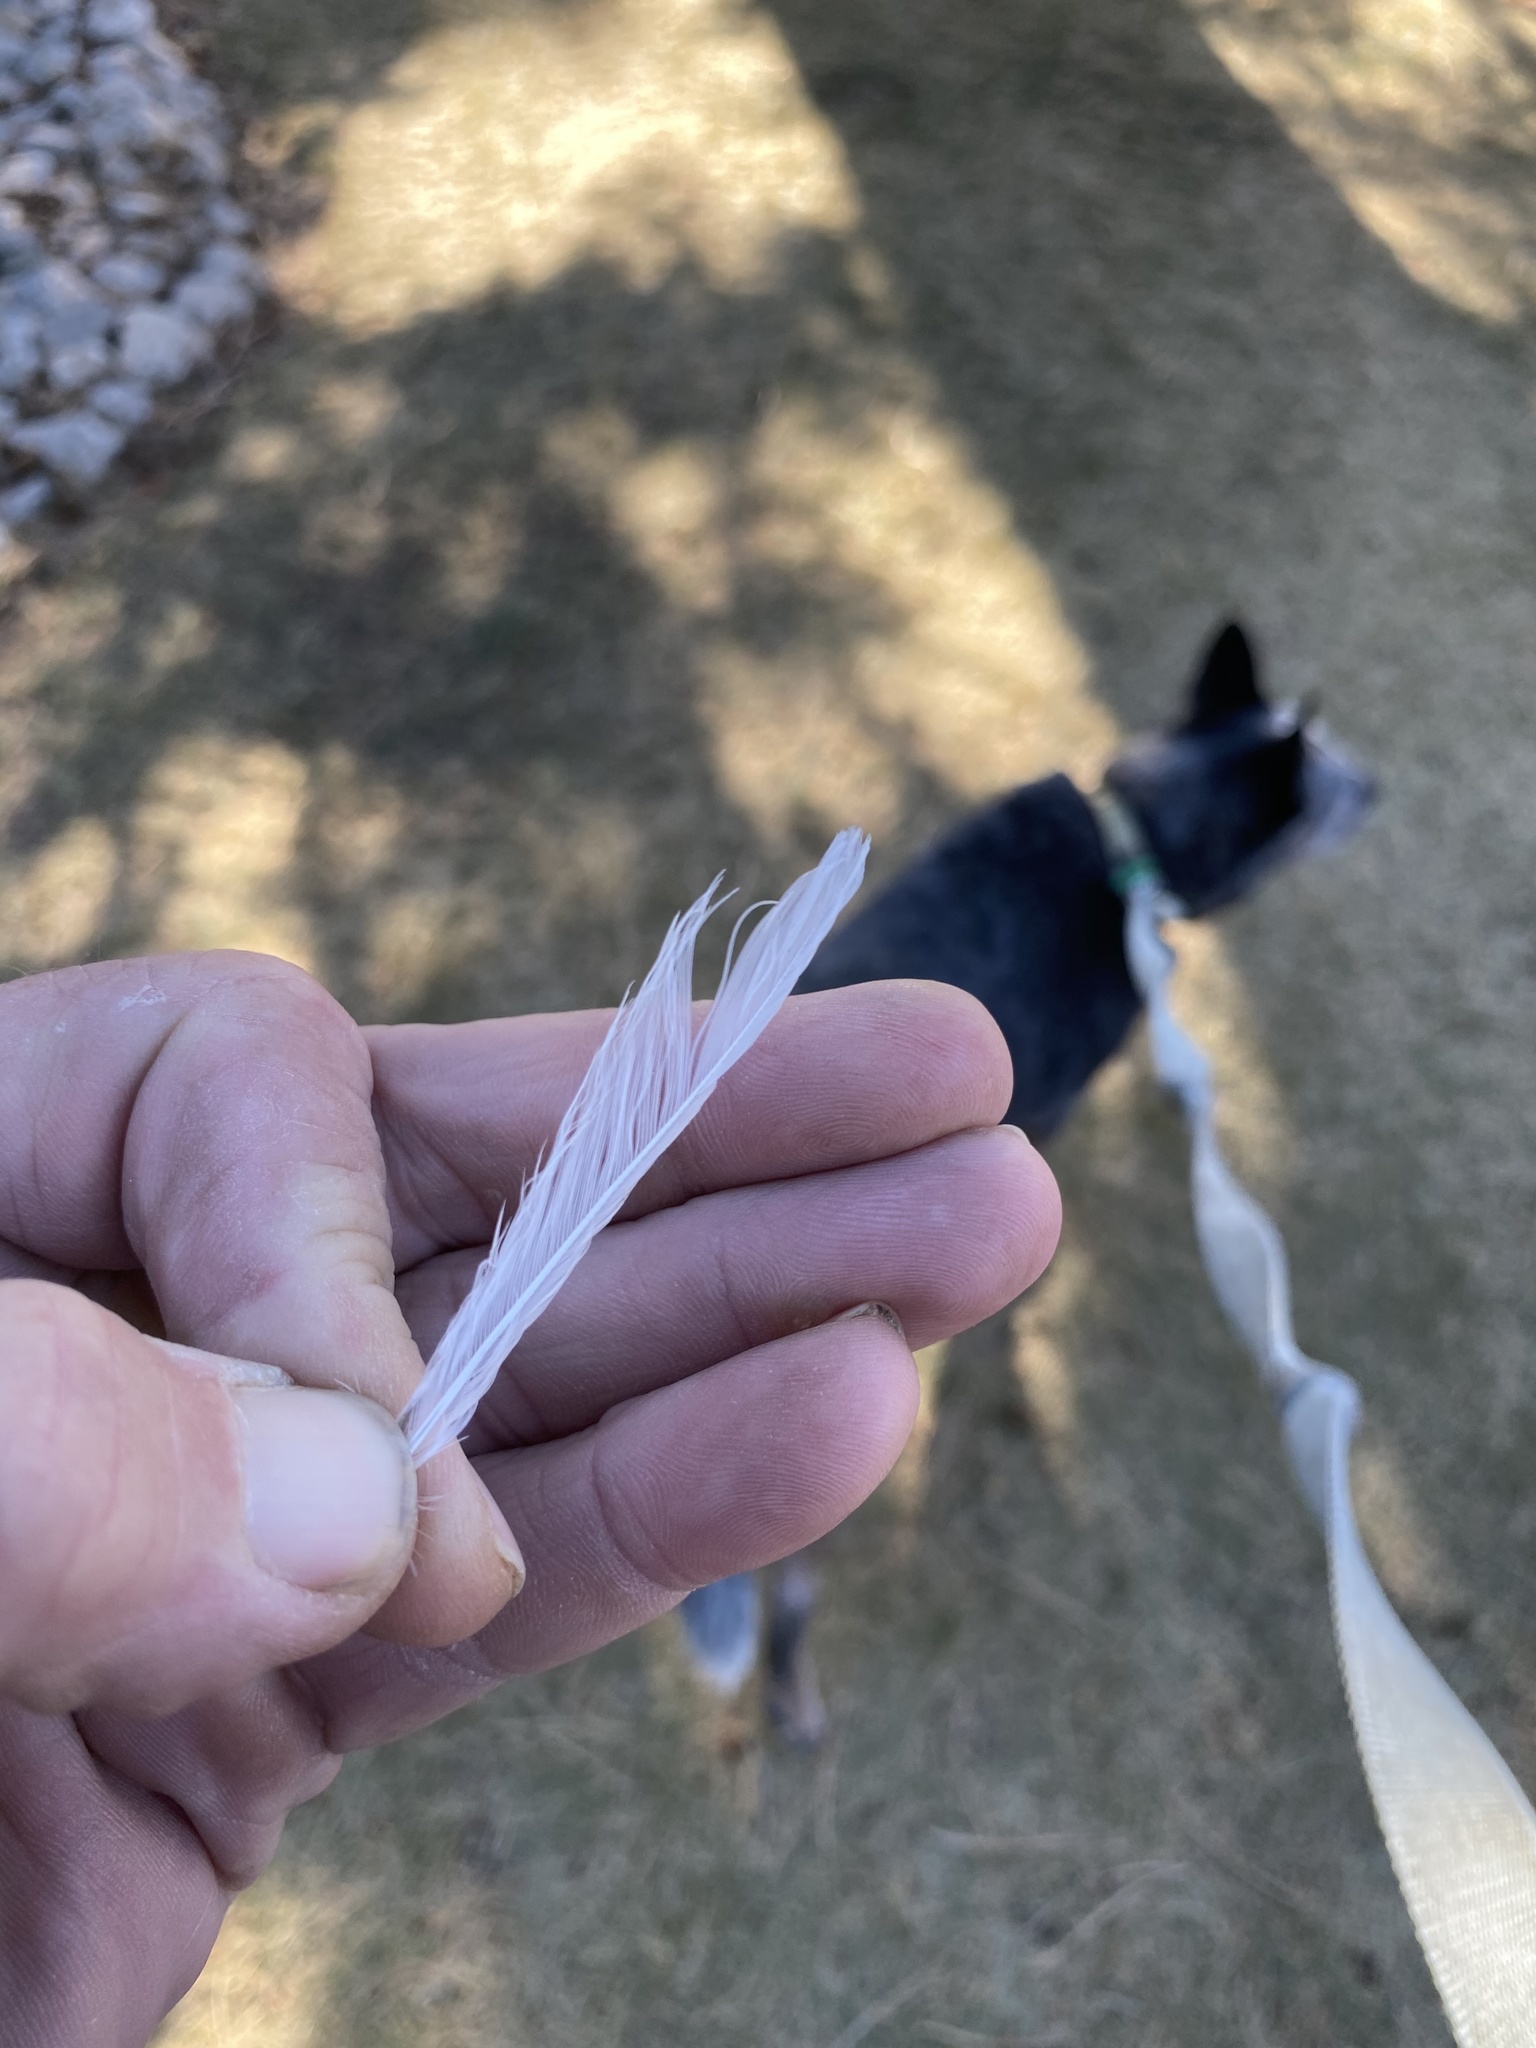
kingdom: Animalia
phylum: Chordata
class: Aves
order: Passeriformes
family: Passerellidae
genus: Junco
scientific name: Junco hyemalis
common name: Dark-eyed junco
